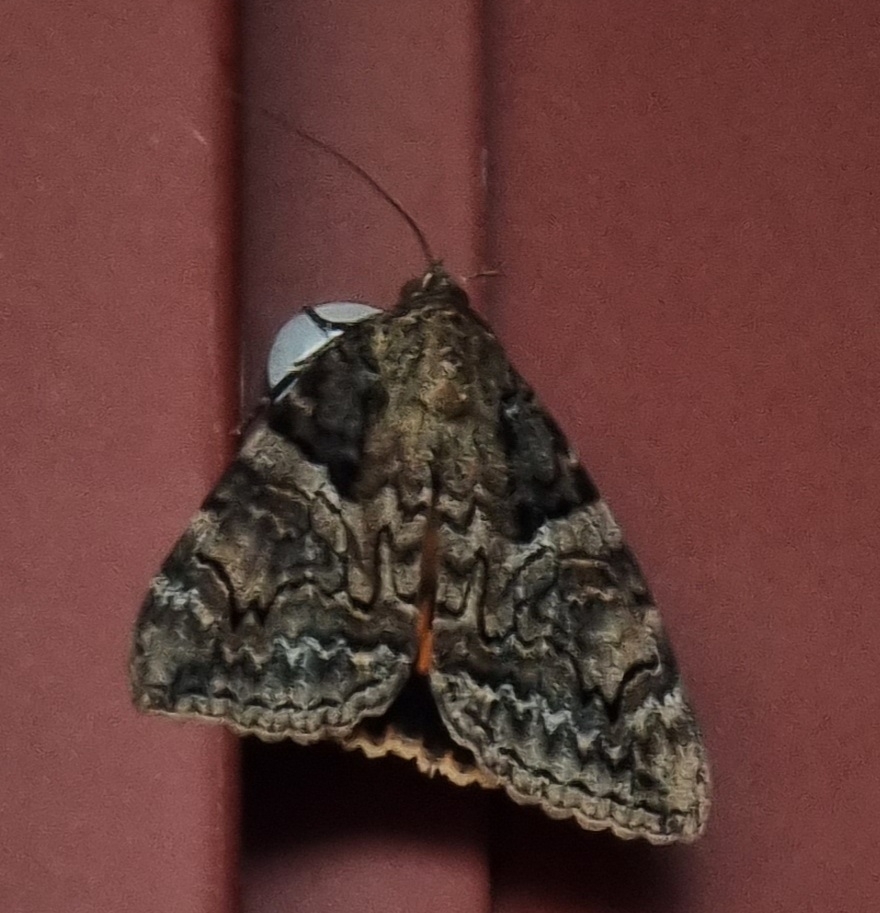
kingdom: Animalia
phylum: Arthropoda
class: Insecta
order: Lepidoptera
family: Erebidae
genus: Catocala
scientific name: Catocala helena
